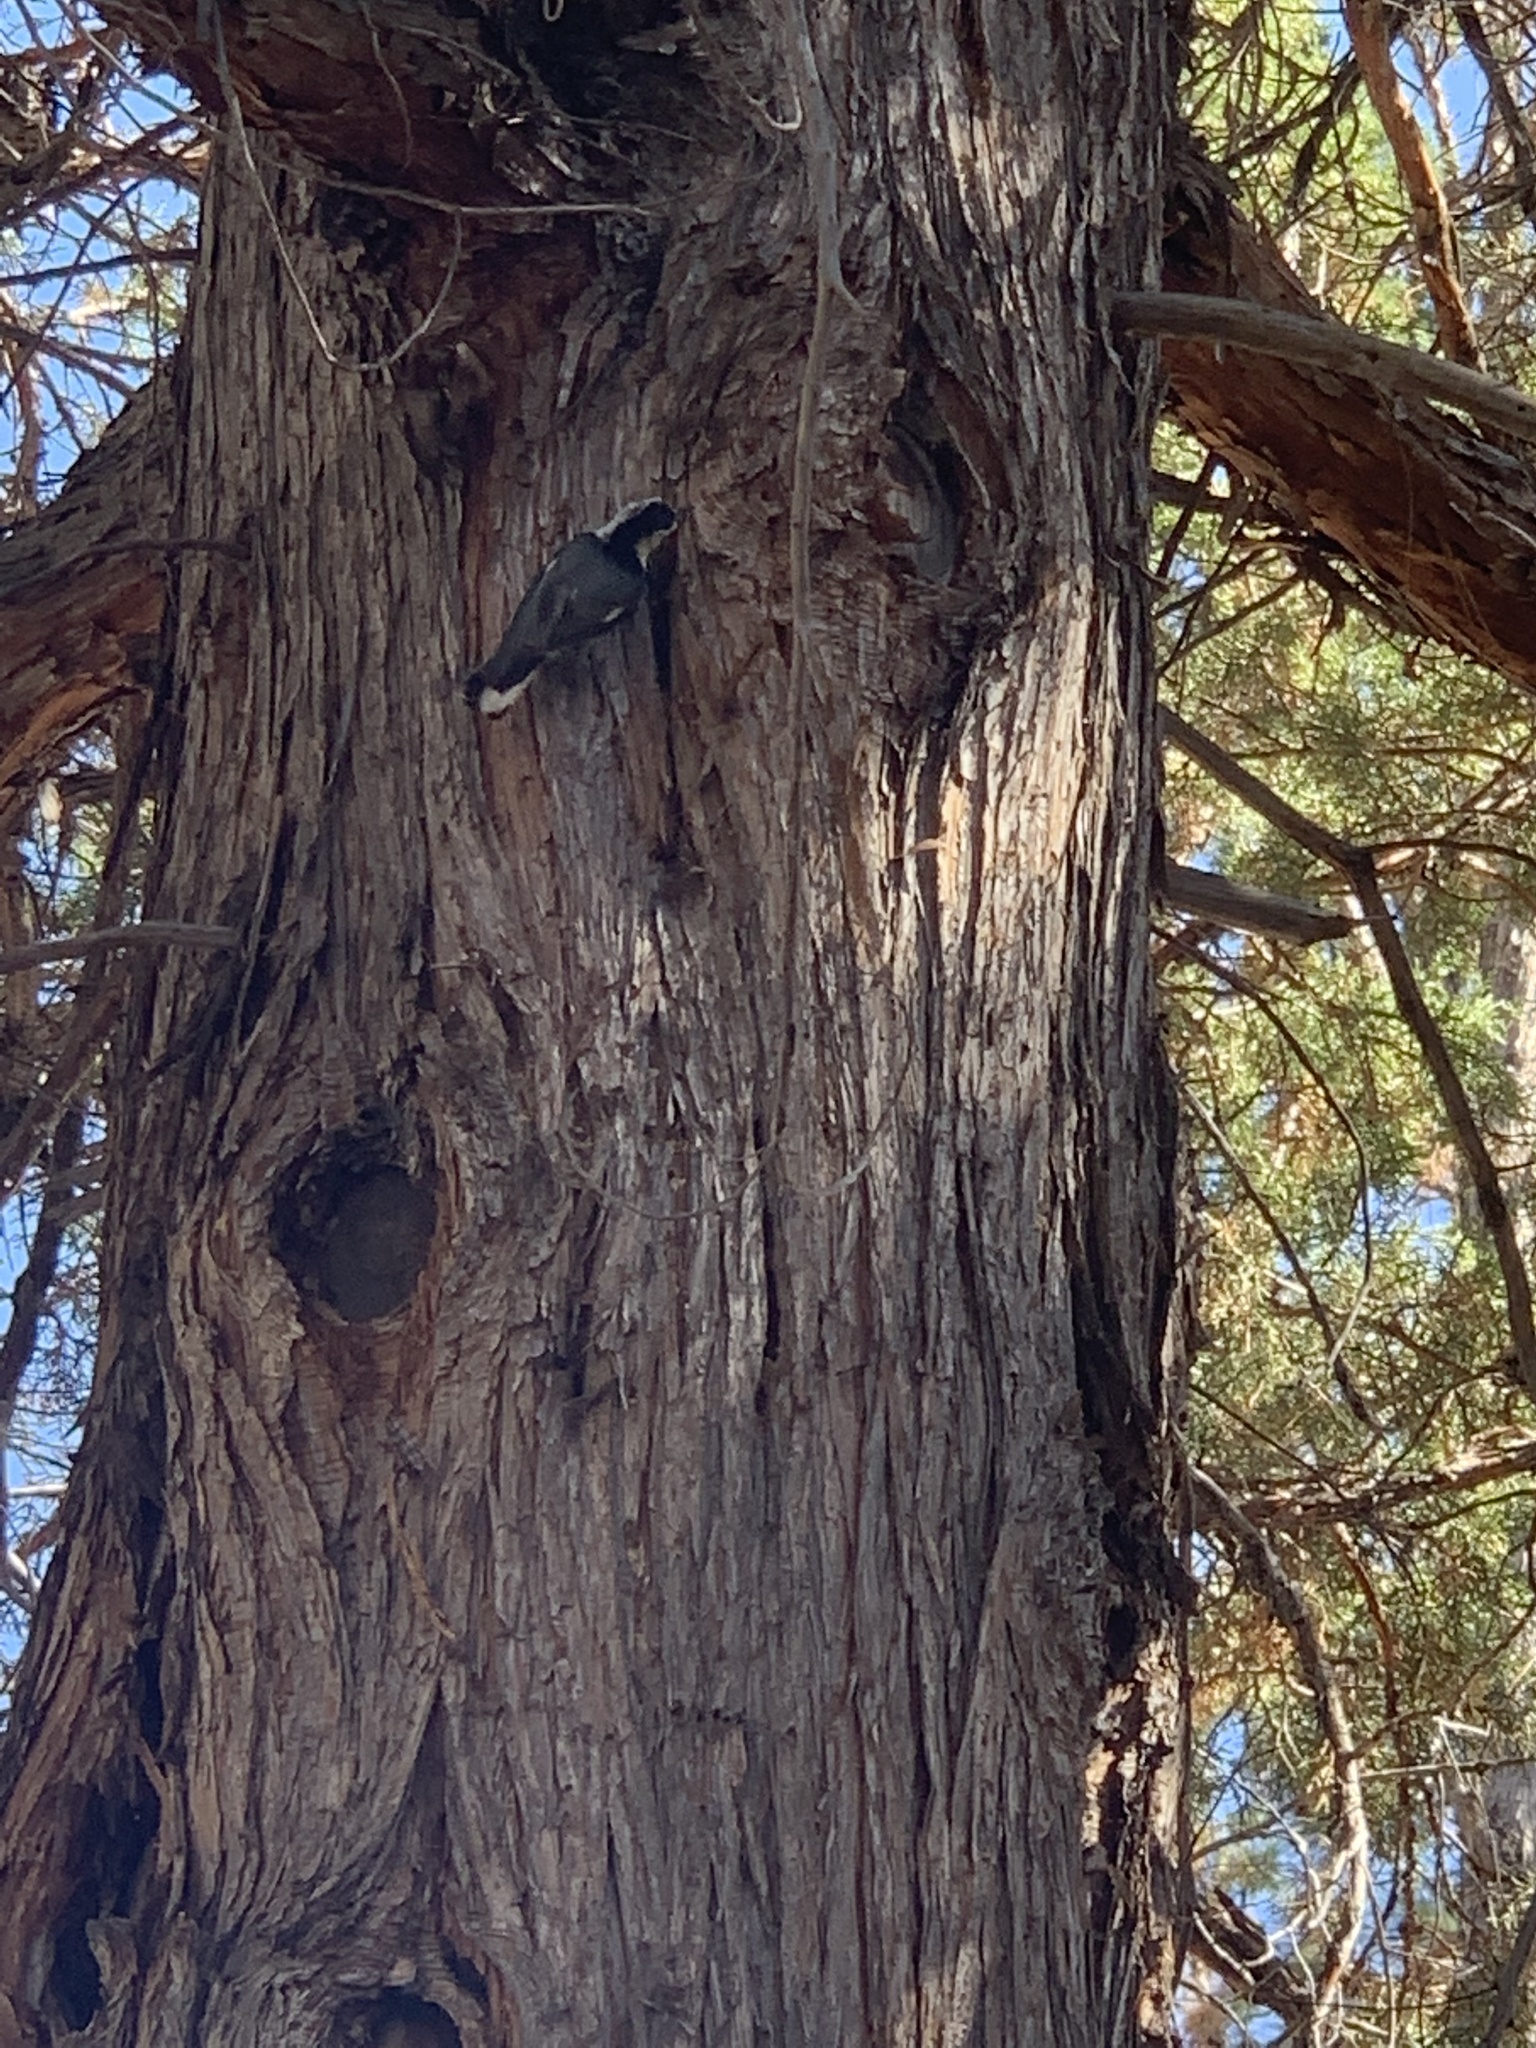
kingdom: Animalia
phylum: Chordata
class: Aves
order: Passeriformes
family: Sittidae
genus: Sitta
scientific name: Sitta carolinensis
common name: White-breasted nuthatch
